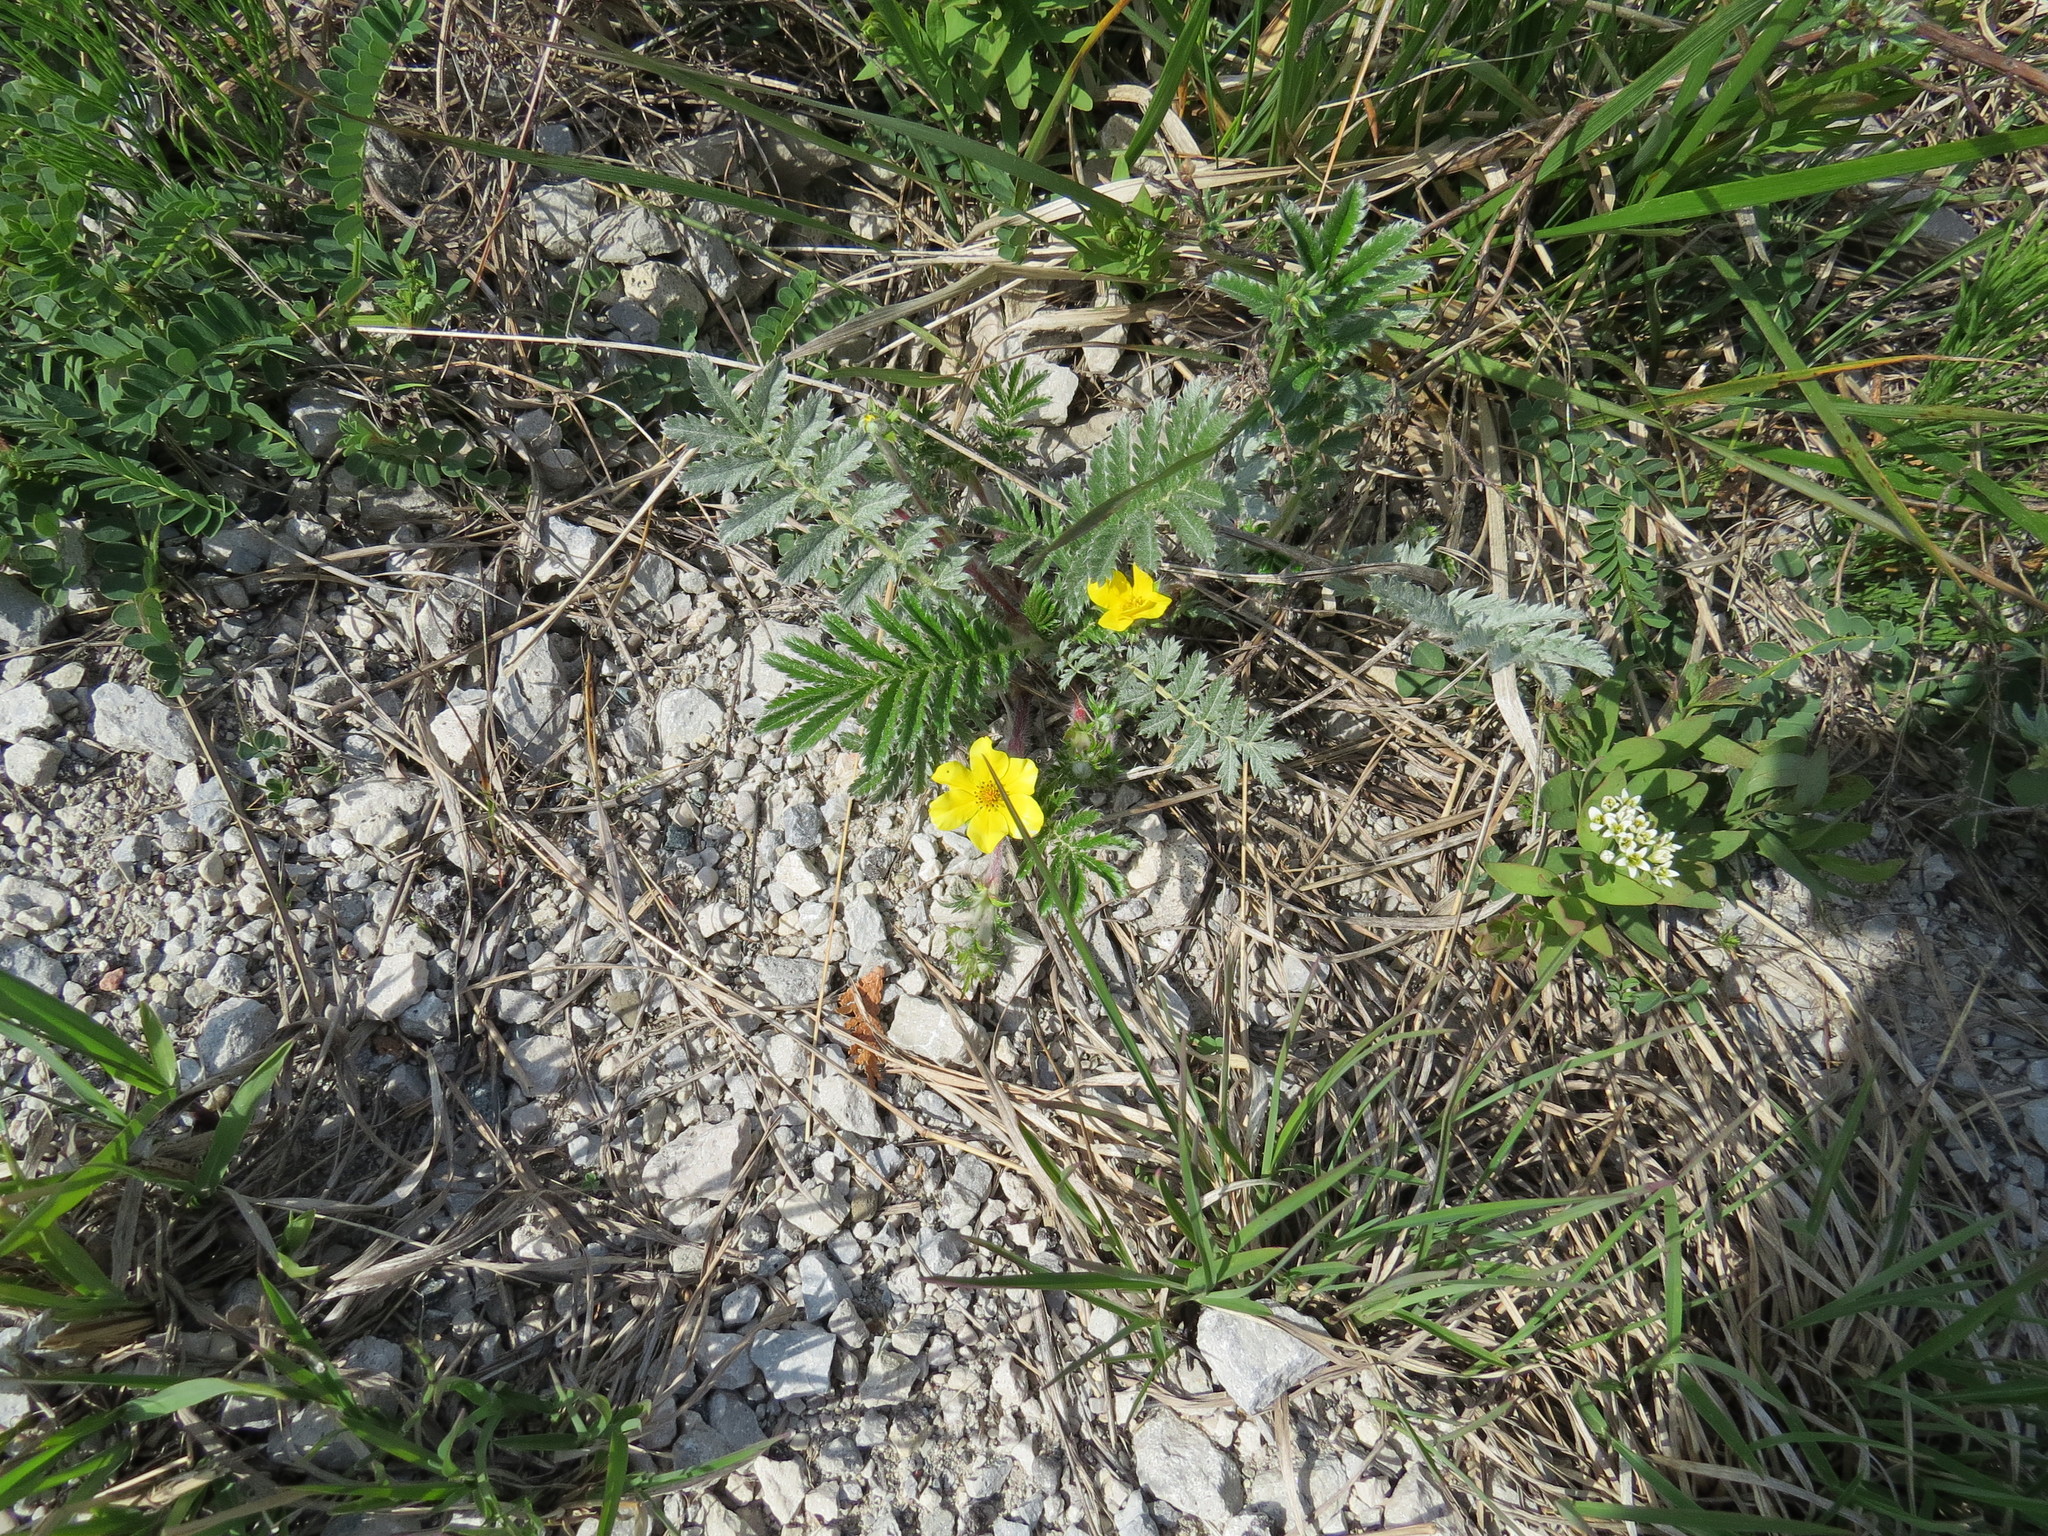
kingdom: Plantae
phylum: Tracheophyta
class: Magnoliopsida
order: Rosales
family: Rosaceae
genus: Argentina
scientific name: Argentina anserina
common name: Common silverweed
